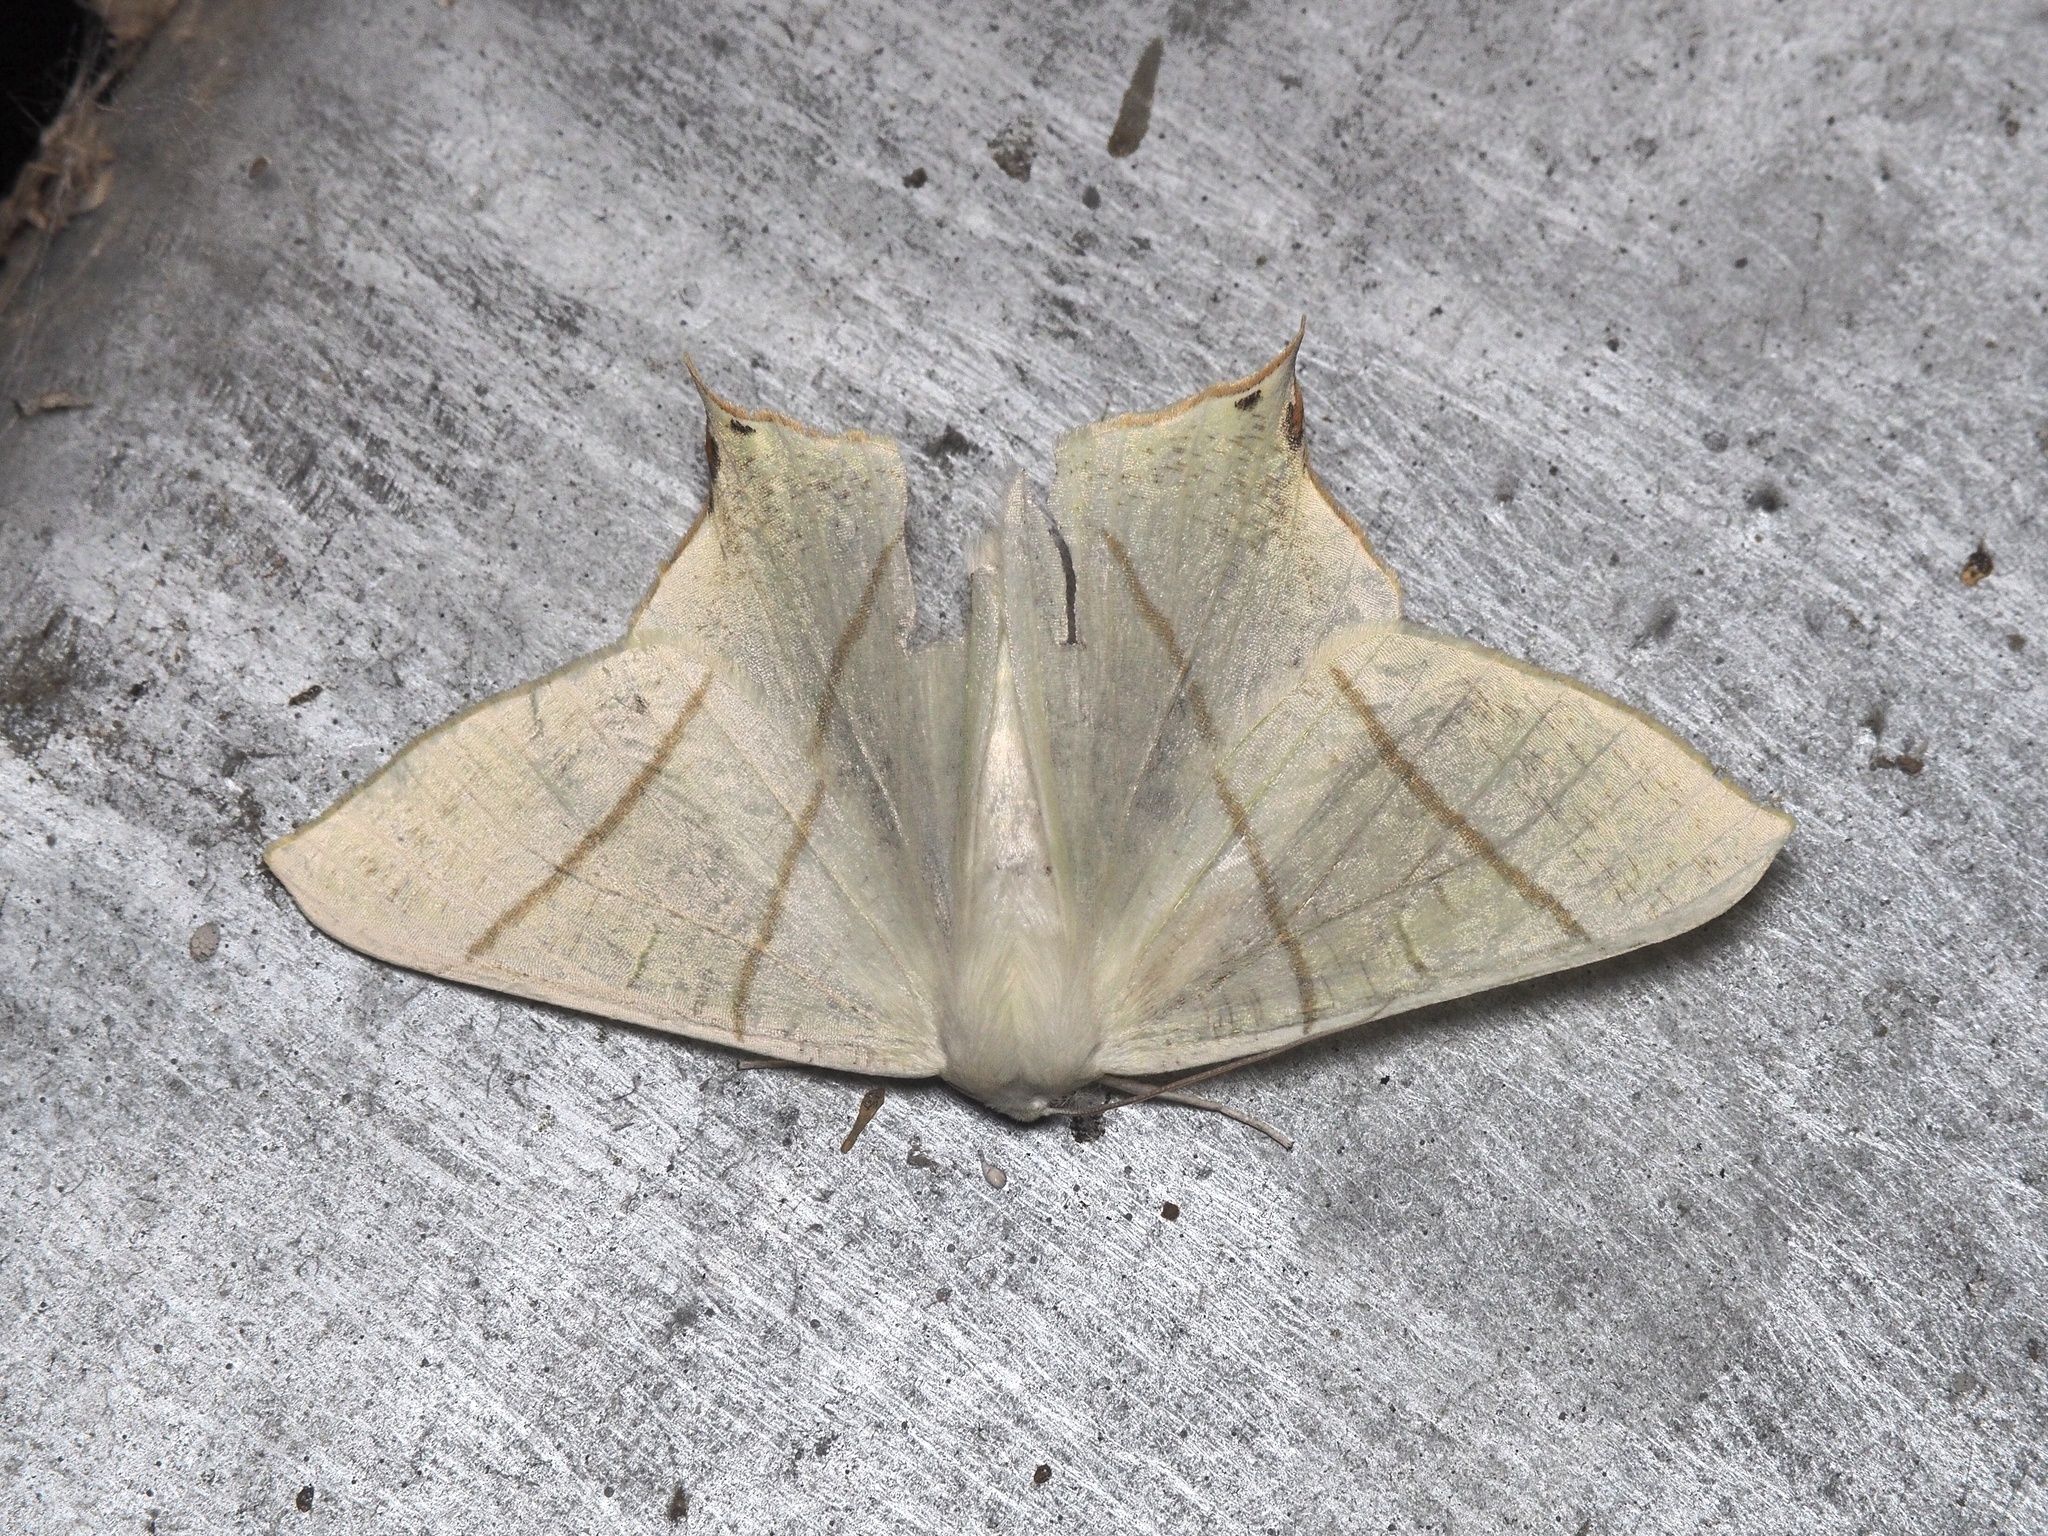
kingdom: Animalia
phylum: Arthropoda
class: Insecta
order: Lepidoptera
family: Geometridae
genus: Ourapteryx
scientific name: Ourapteryx sambucaria
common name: Swallow-tailed moth
